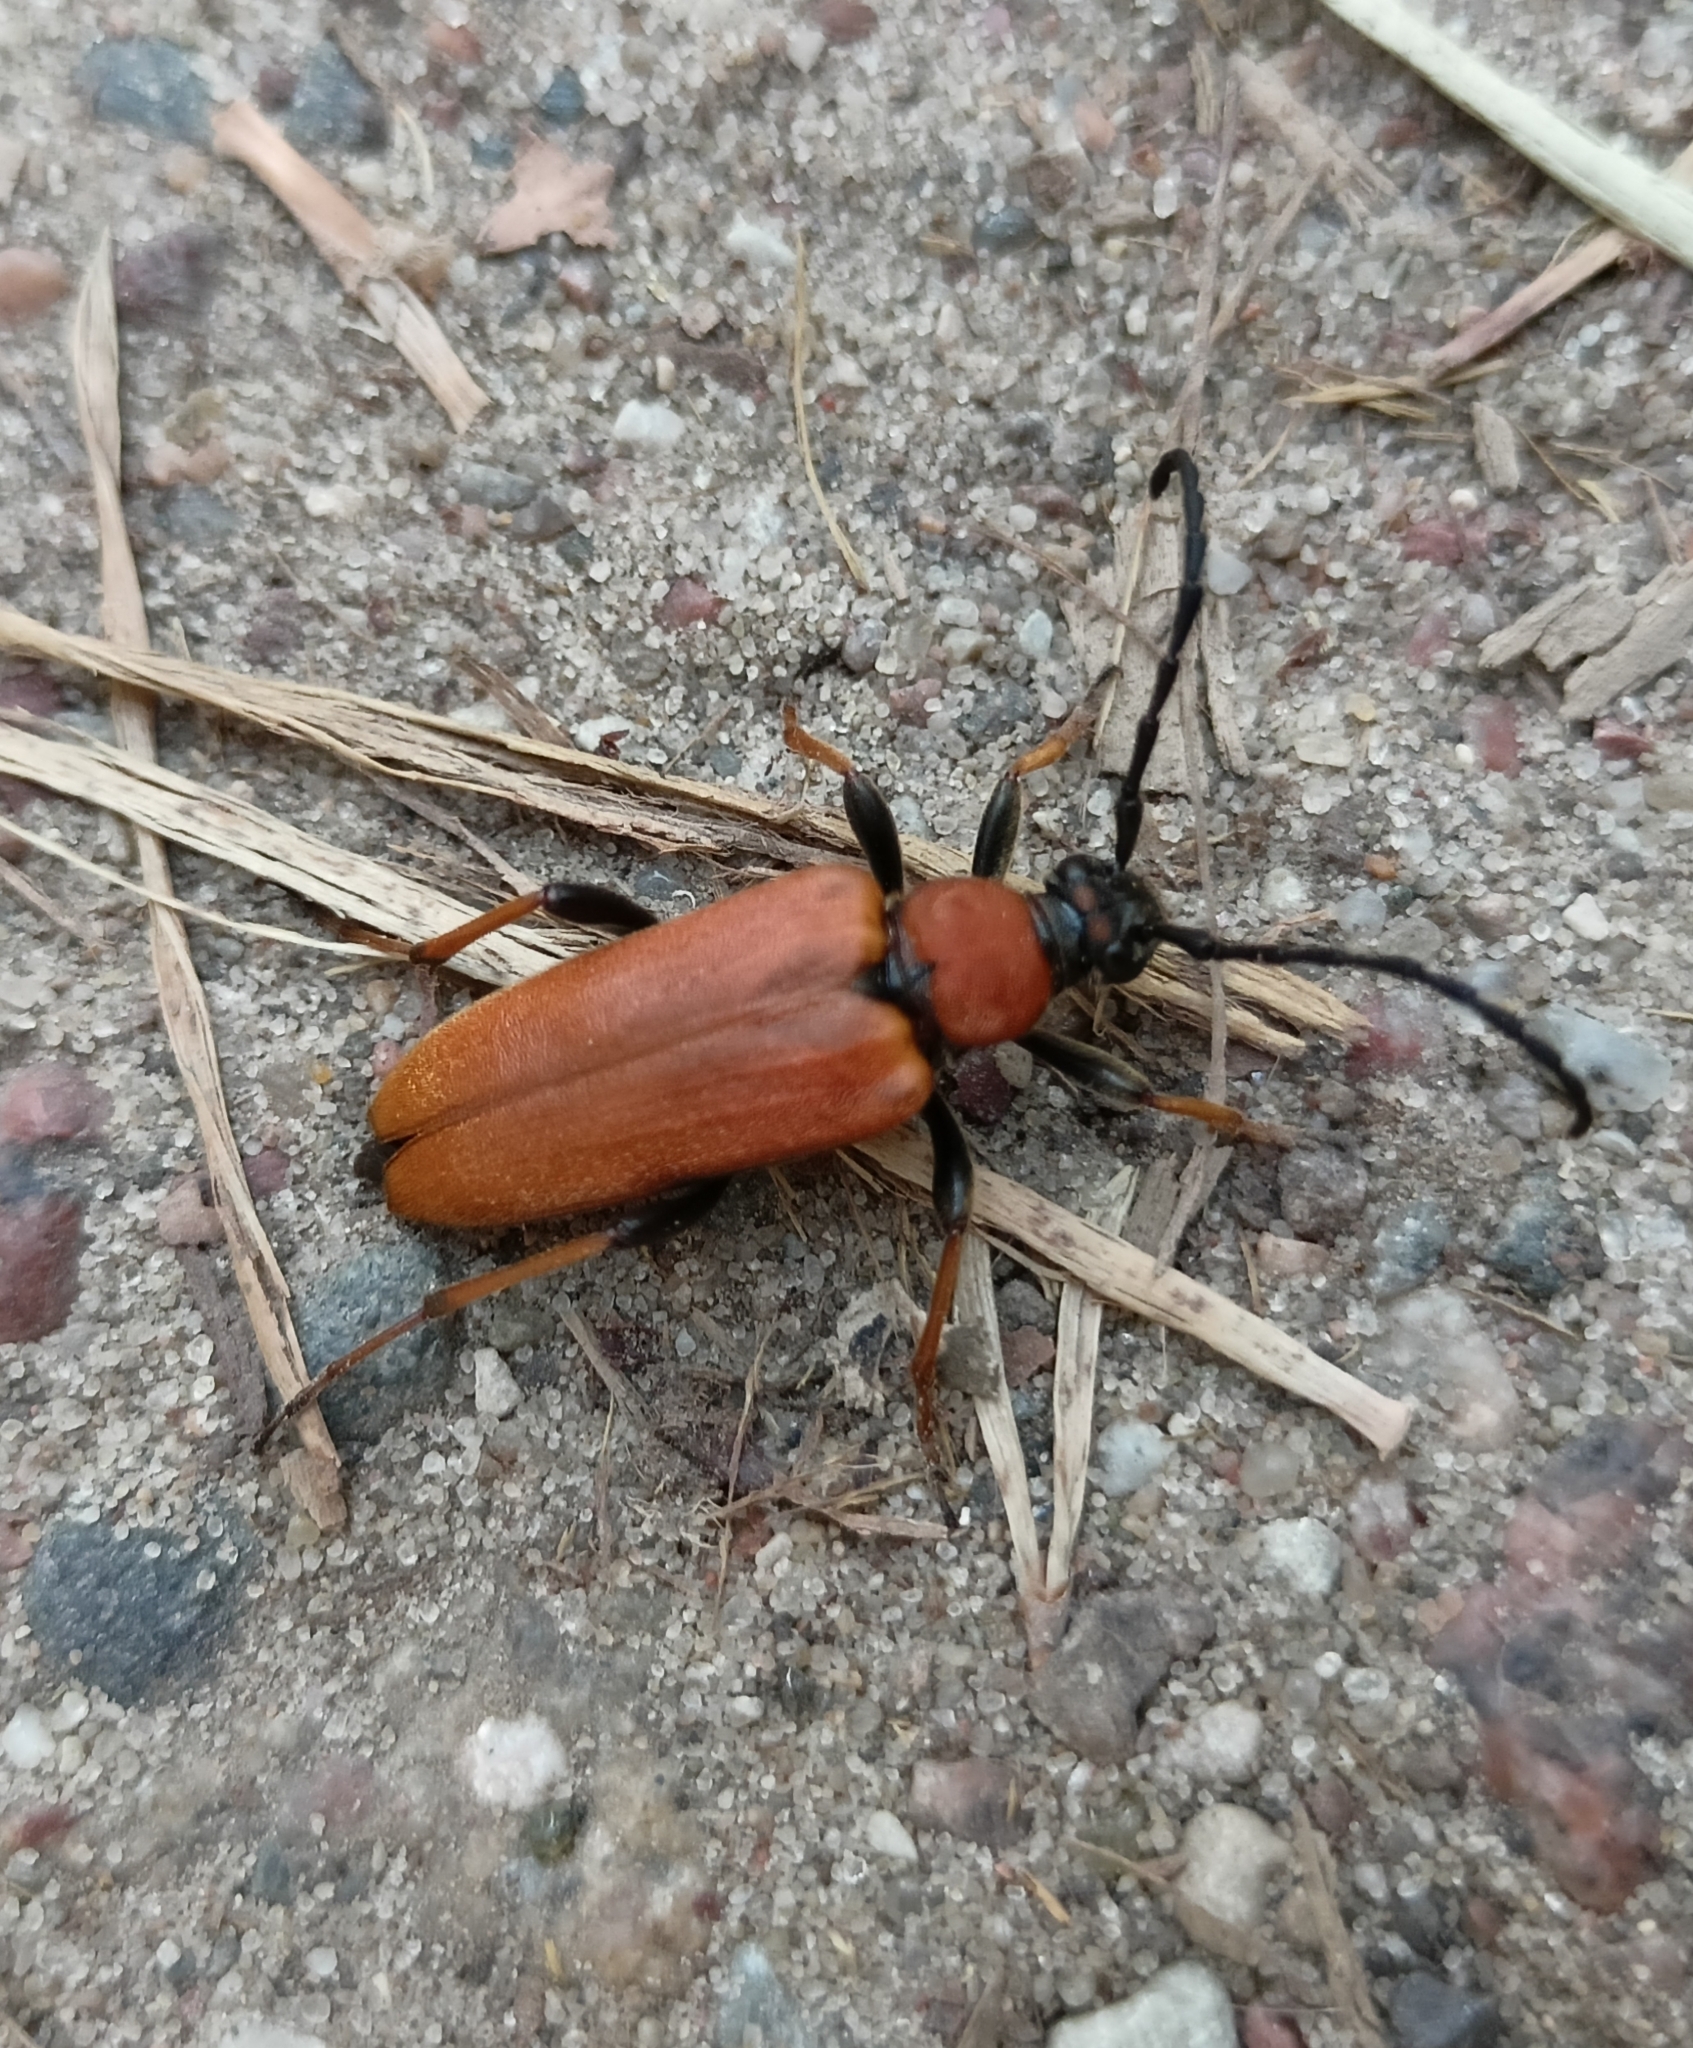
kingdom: Animalia
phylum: Arthropoda
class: Insecta
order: Coleoptera
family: Cerambycidae
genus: Stictoleptura
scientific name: Stictoleptura rubra
